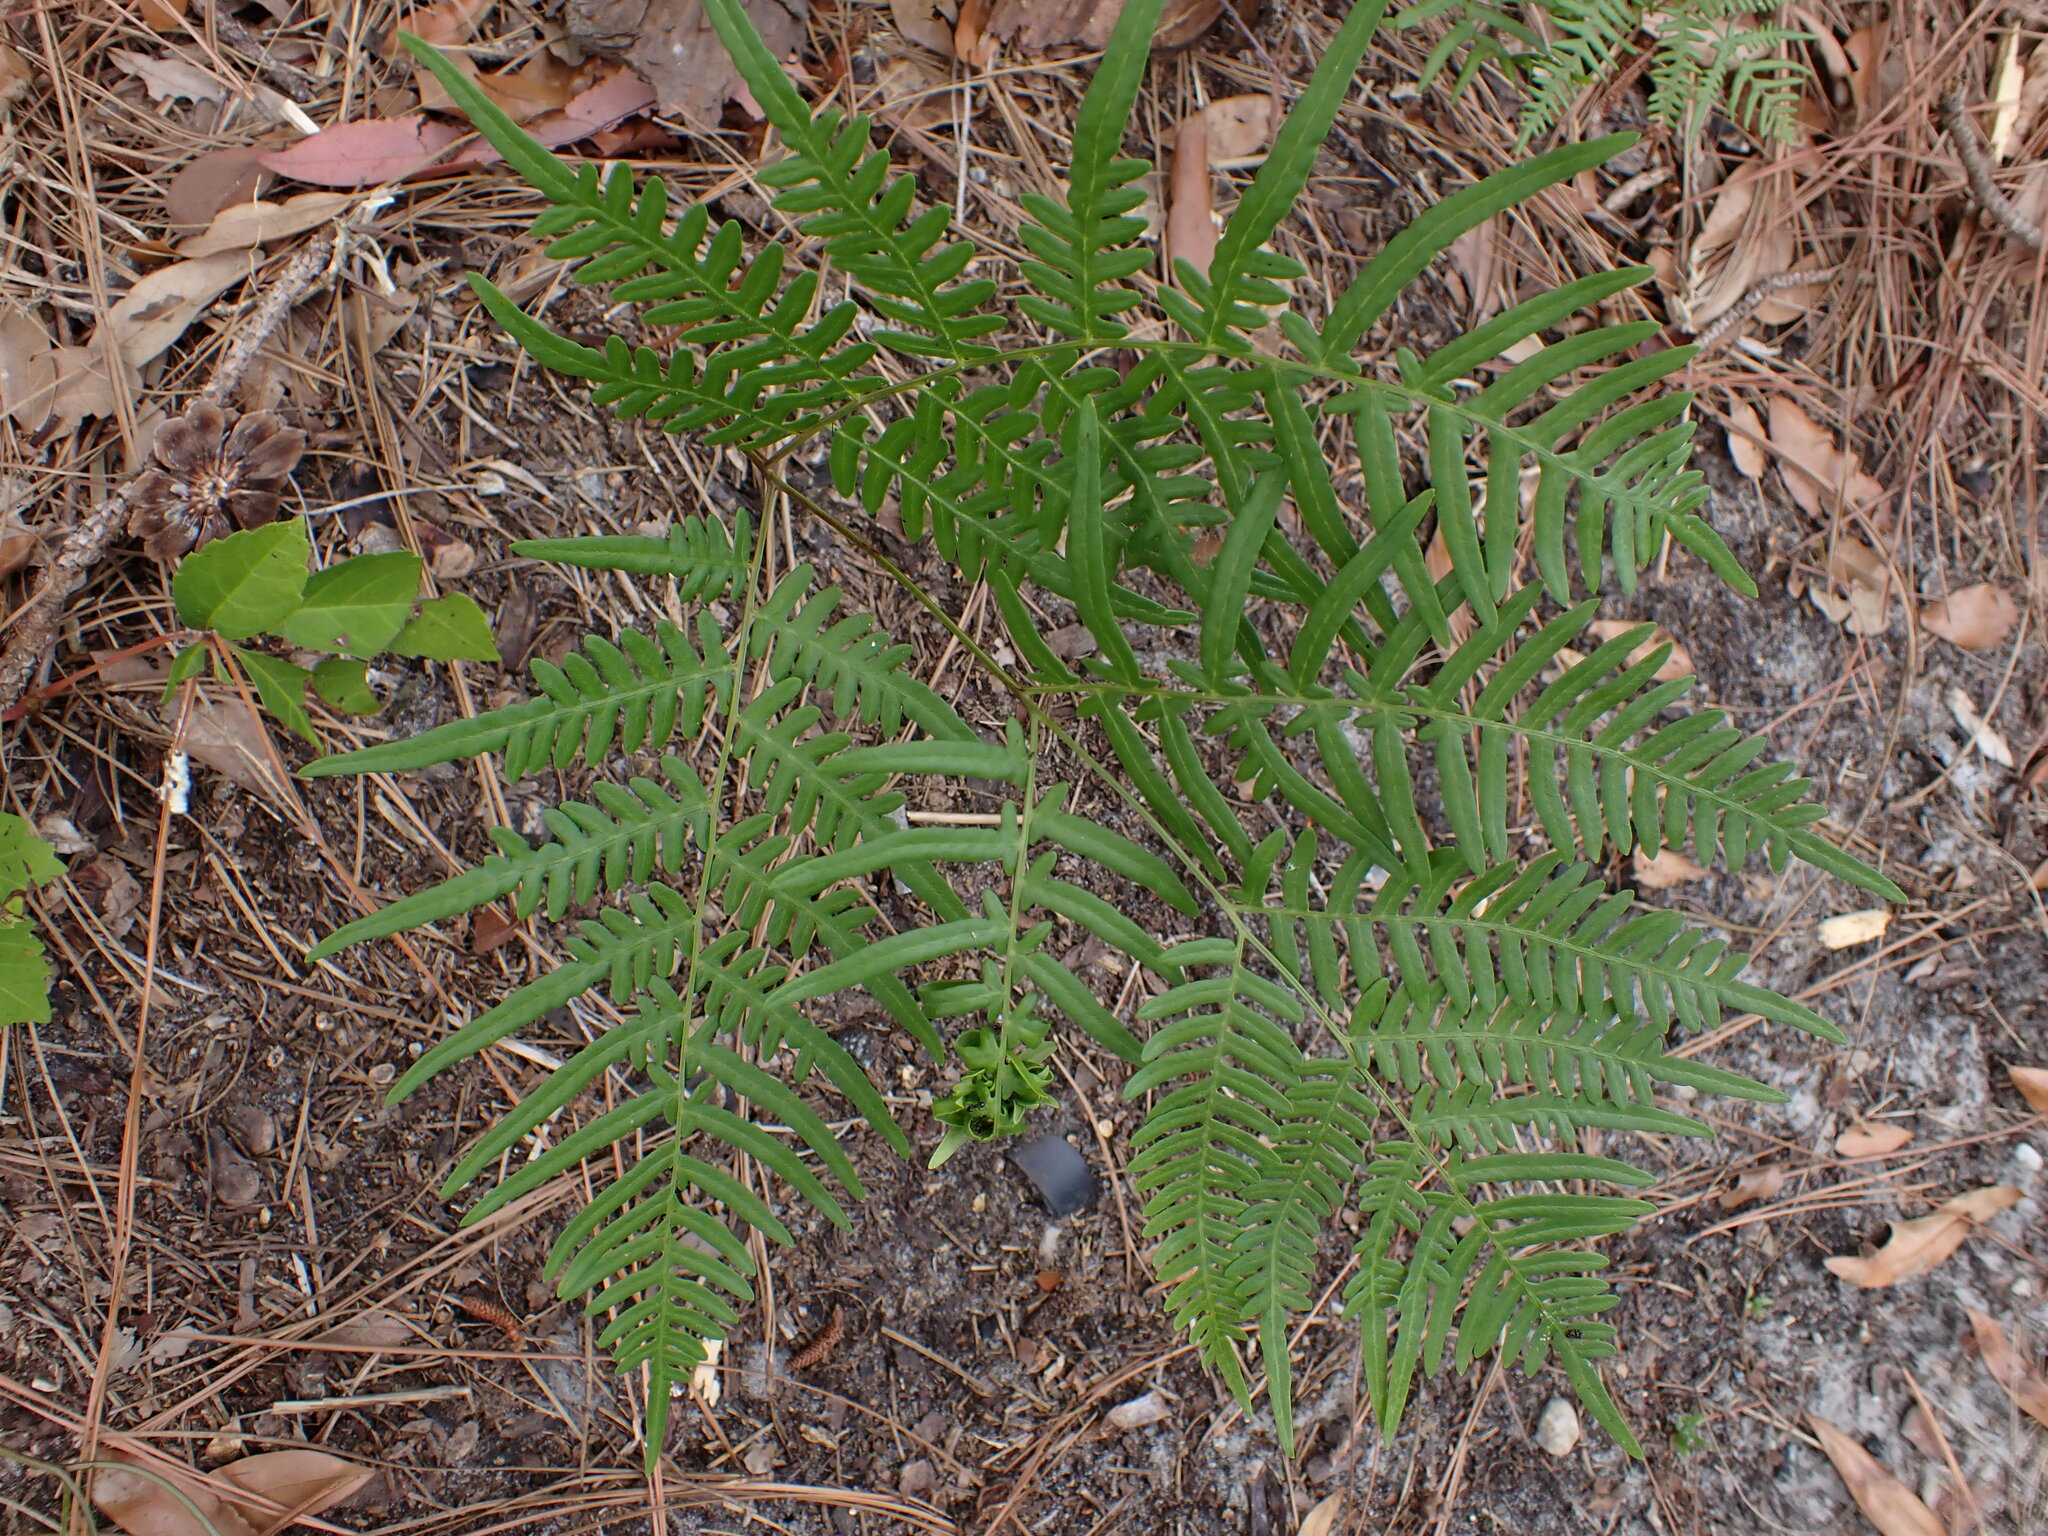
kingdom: Plantae
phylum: Tracheophyta
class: Polypodiopsida
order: Polypodiales
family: Dennstaedtiaceae
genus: Pteridium
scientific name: Pteridium aquilinum
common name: Bracken
